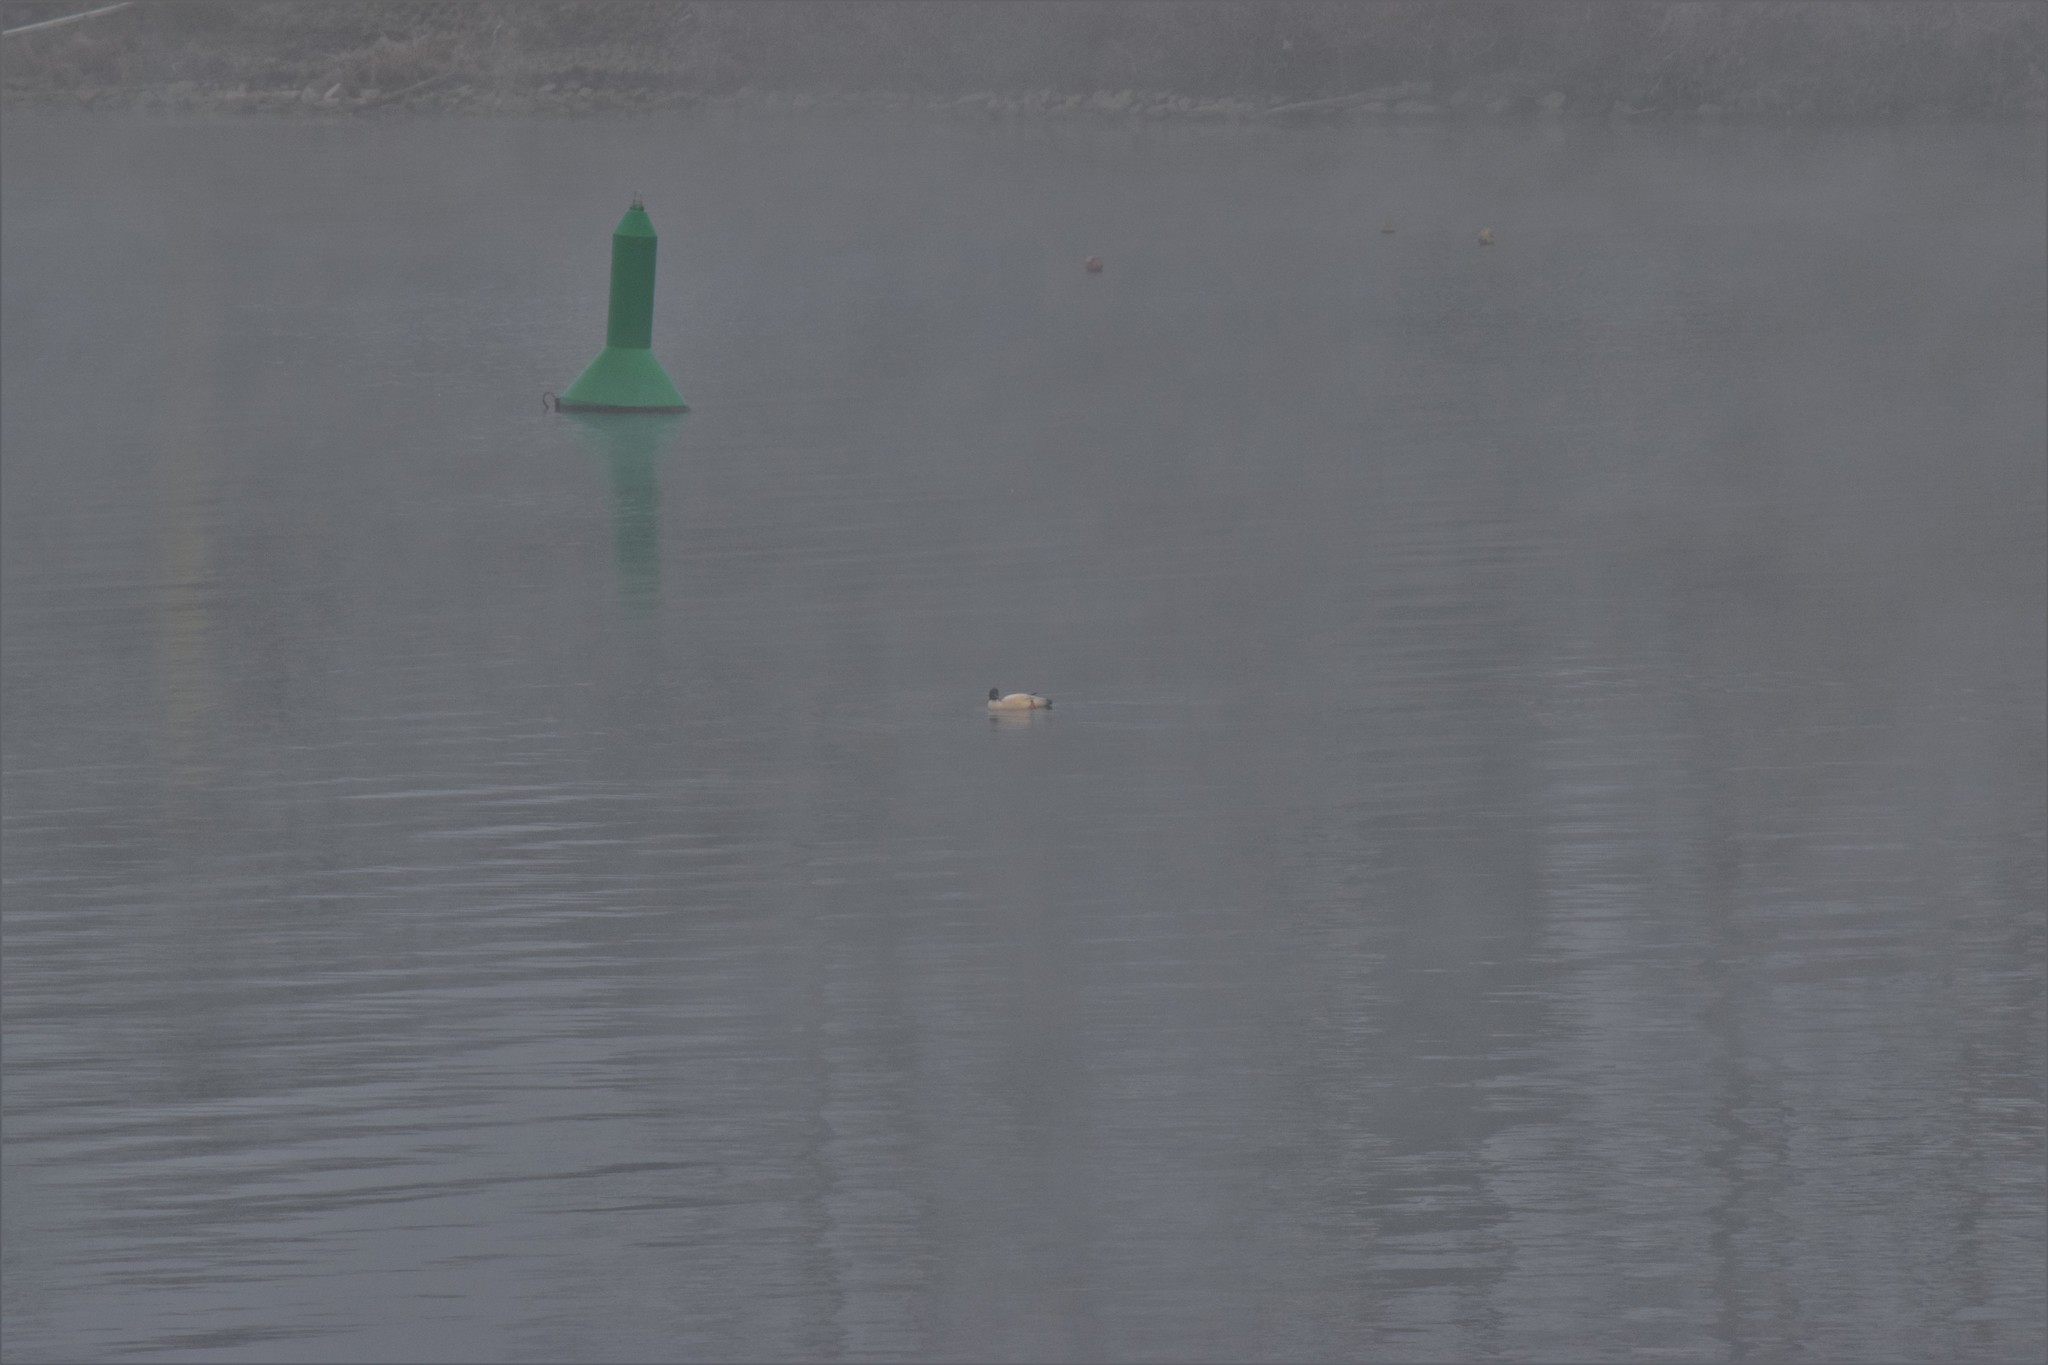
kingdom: Animalia
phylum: Chordata
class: Aves
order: Anseriformes
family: Anatidae
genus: Mergus
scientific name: Mergus merganser
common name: Common merganser
